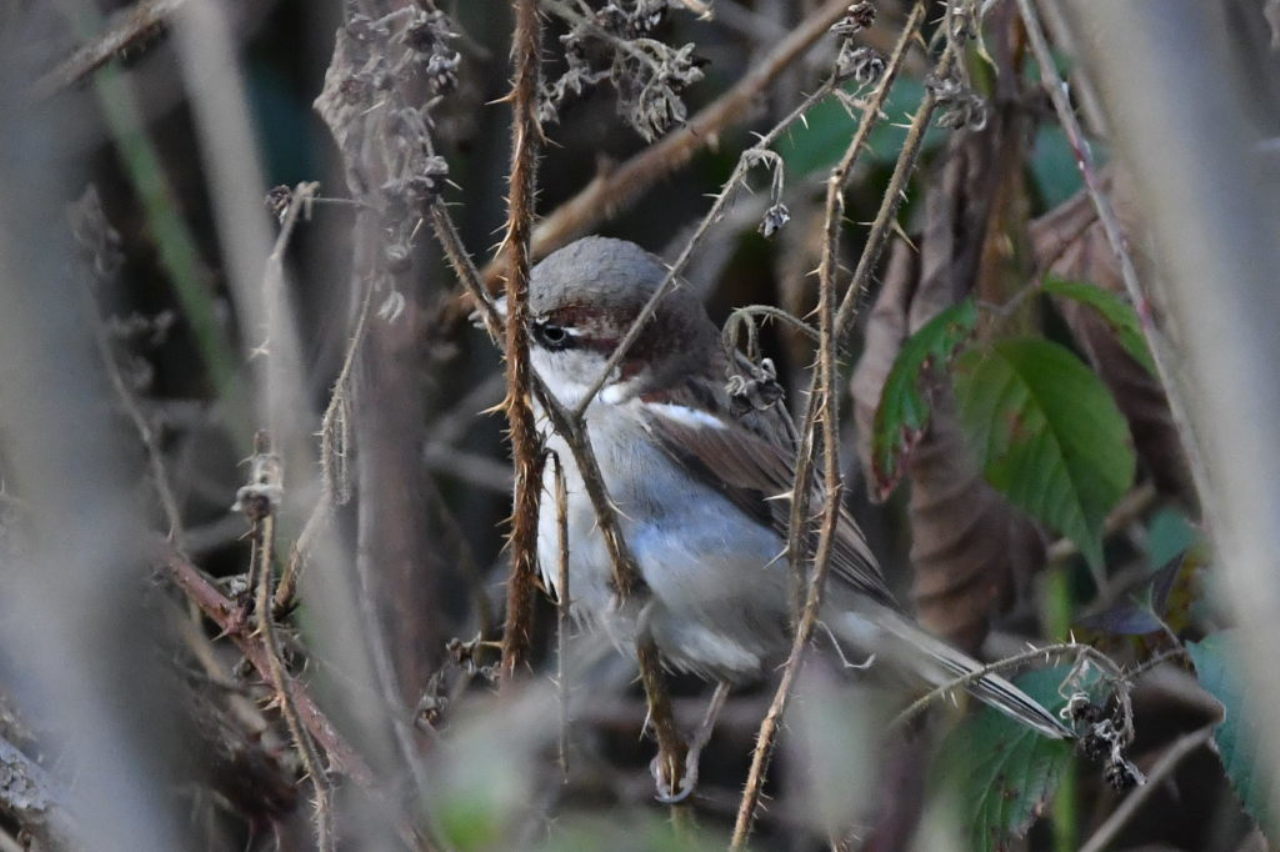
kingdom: Animalia
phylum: Chordata
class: Aves
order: Passeriformes
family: Passeridae
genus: Passer
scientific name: Passer domesticus
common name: House sparrow
